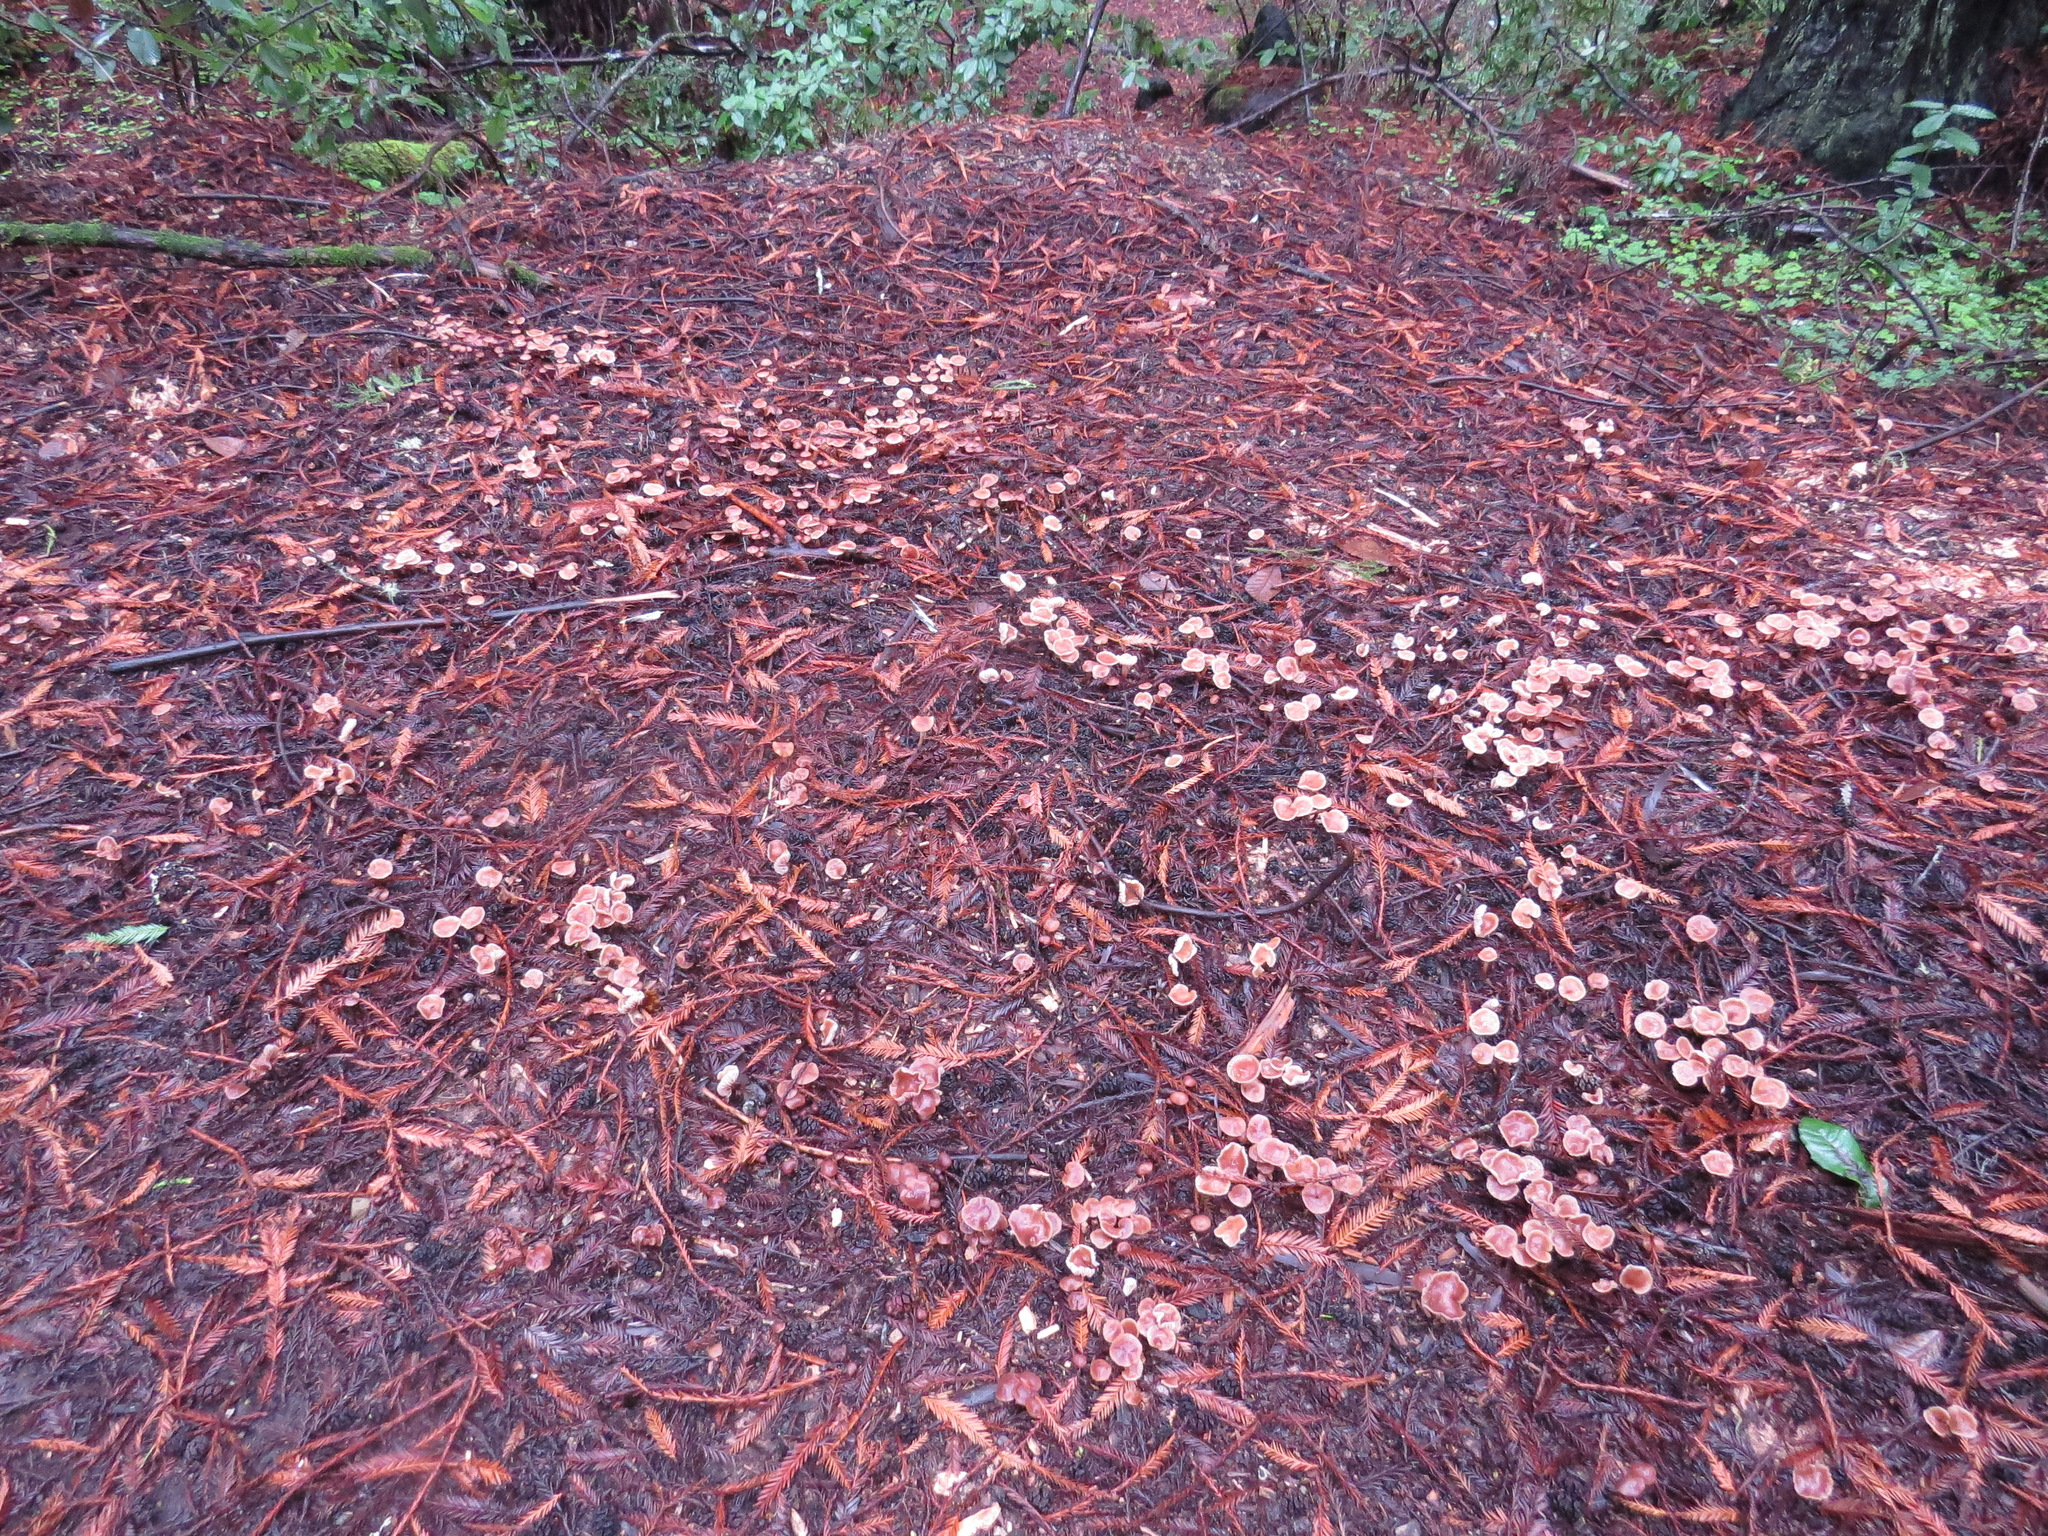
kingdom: Fungi
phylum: Basidiomycota
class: Agaricomycetes
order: Agaricales
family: Omphalotaceae
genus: Gymnopus
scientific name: Gymnopus brassicolens
